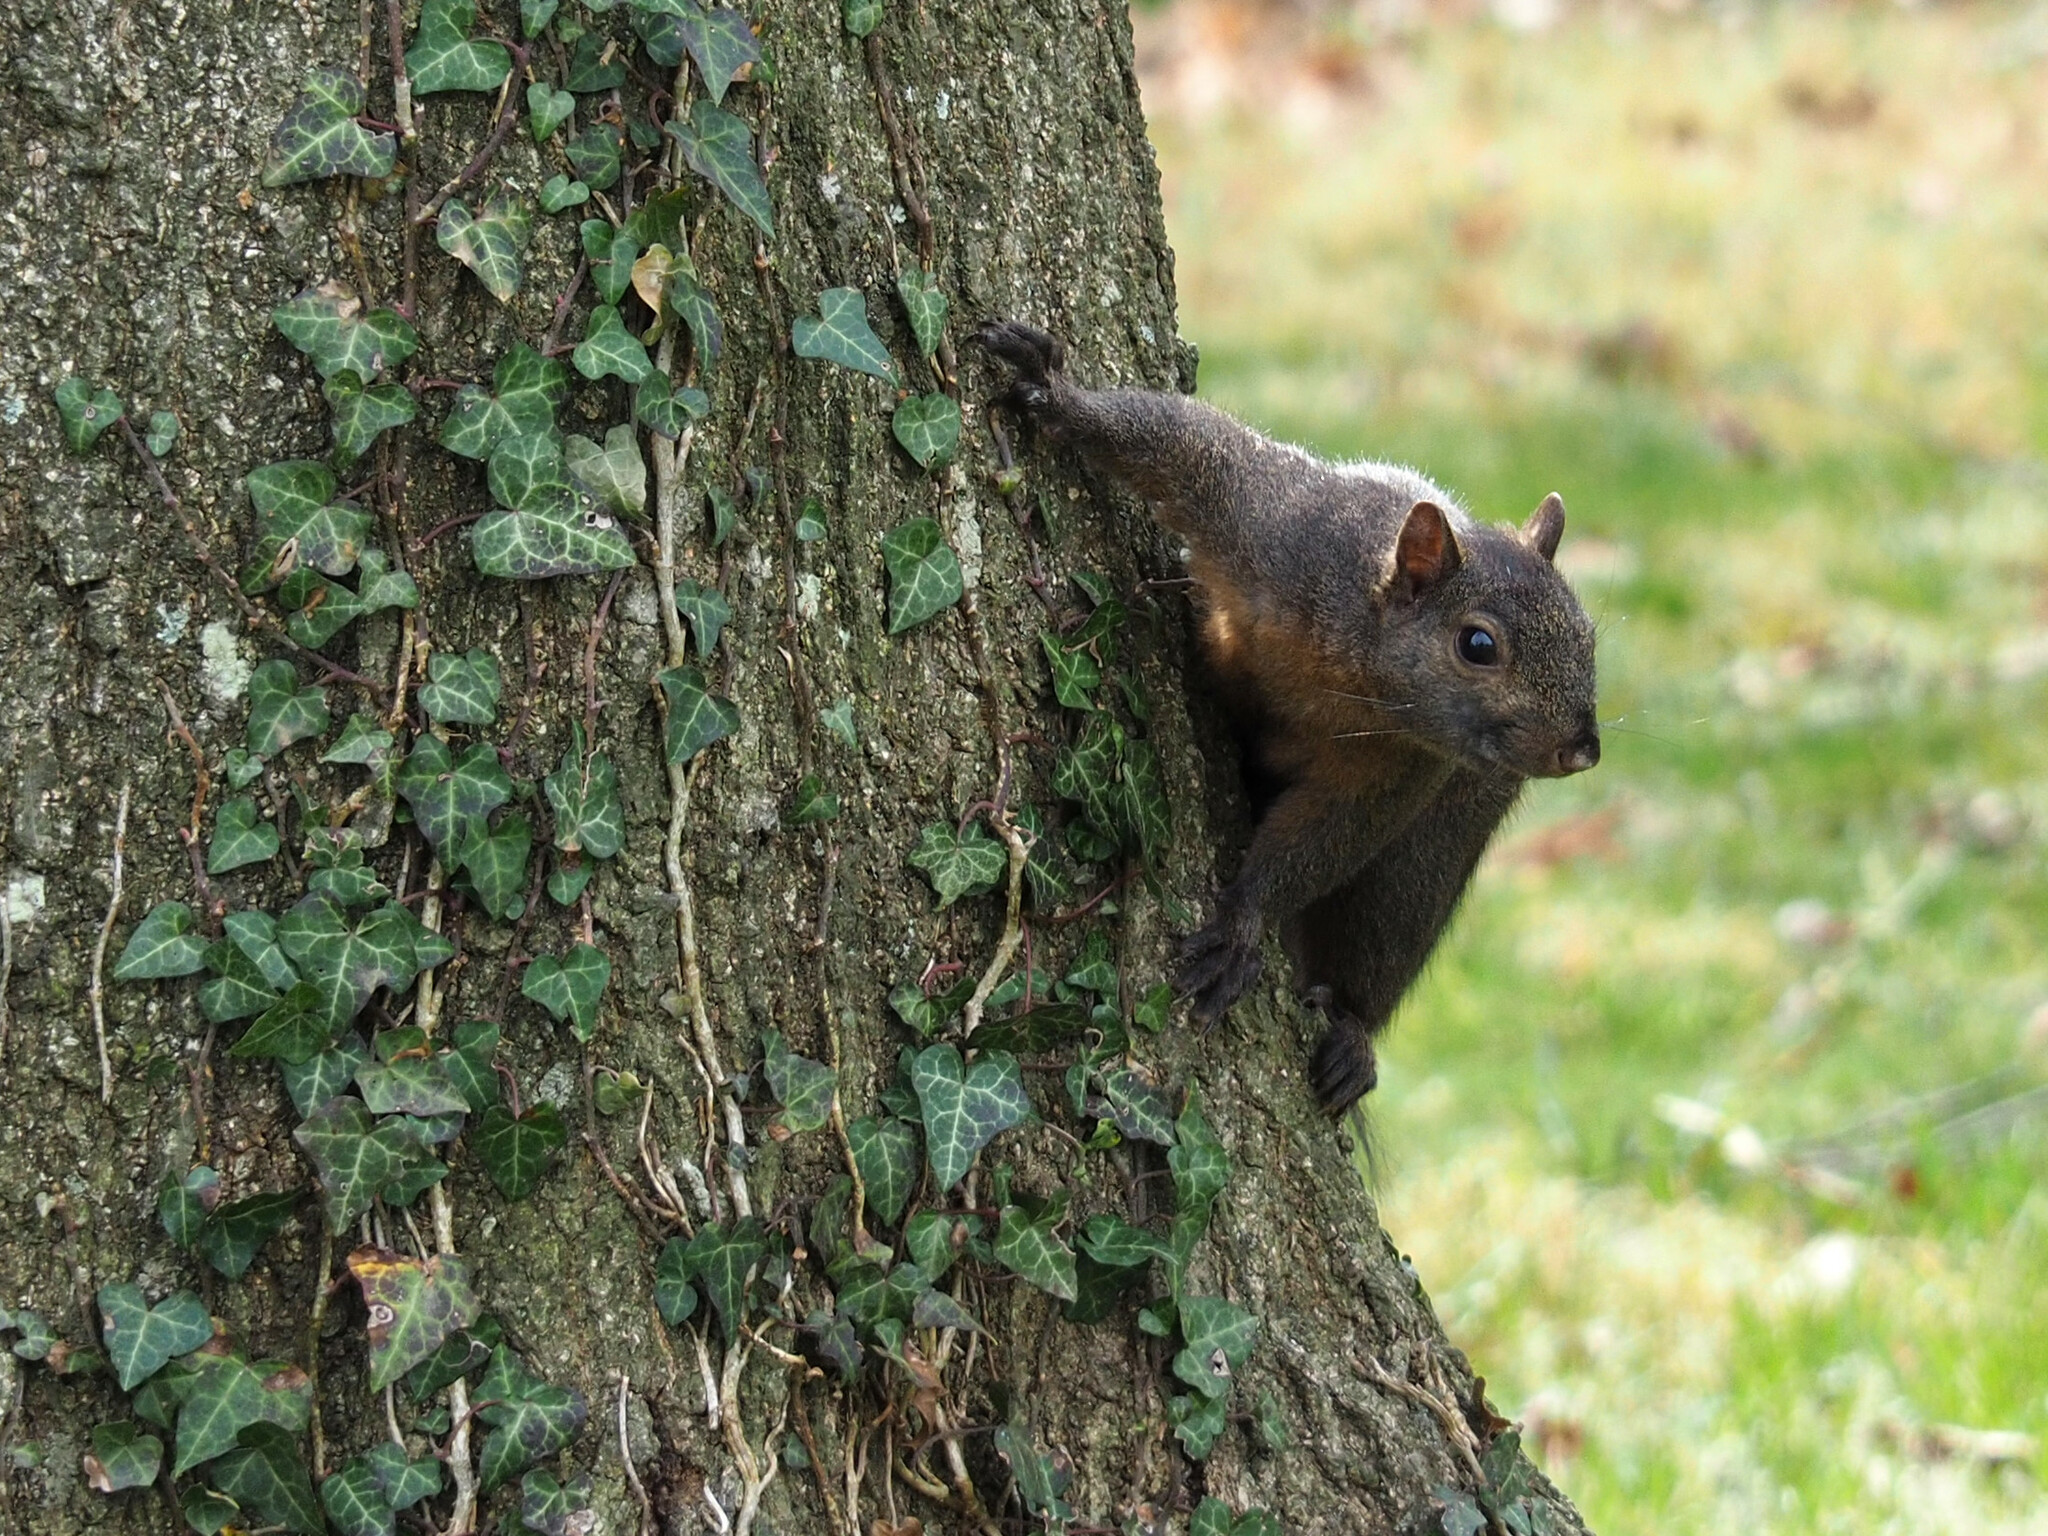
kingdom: Animalia
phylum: Chordata
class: Mammalia
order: Rodentia
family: Sciuridae
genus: Sciurus
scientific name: Sciurus carolinensis
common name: Eastern gray squirrel
